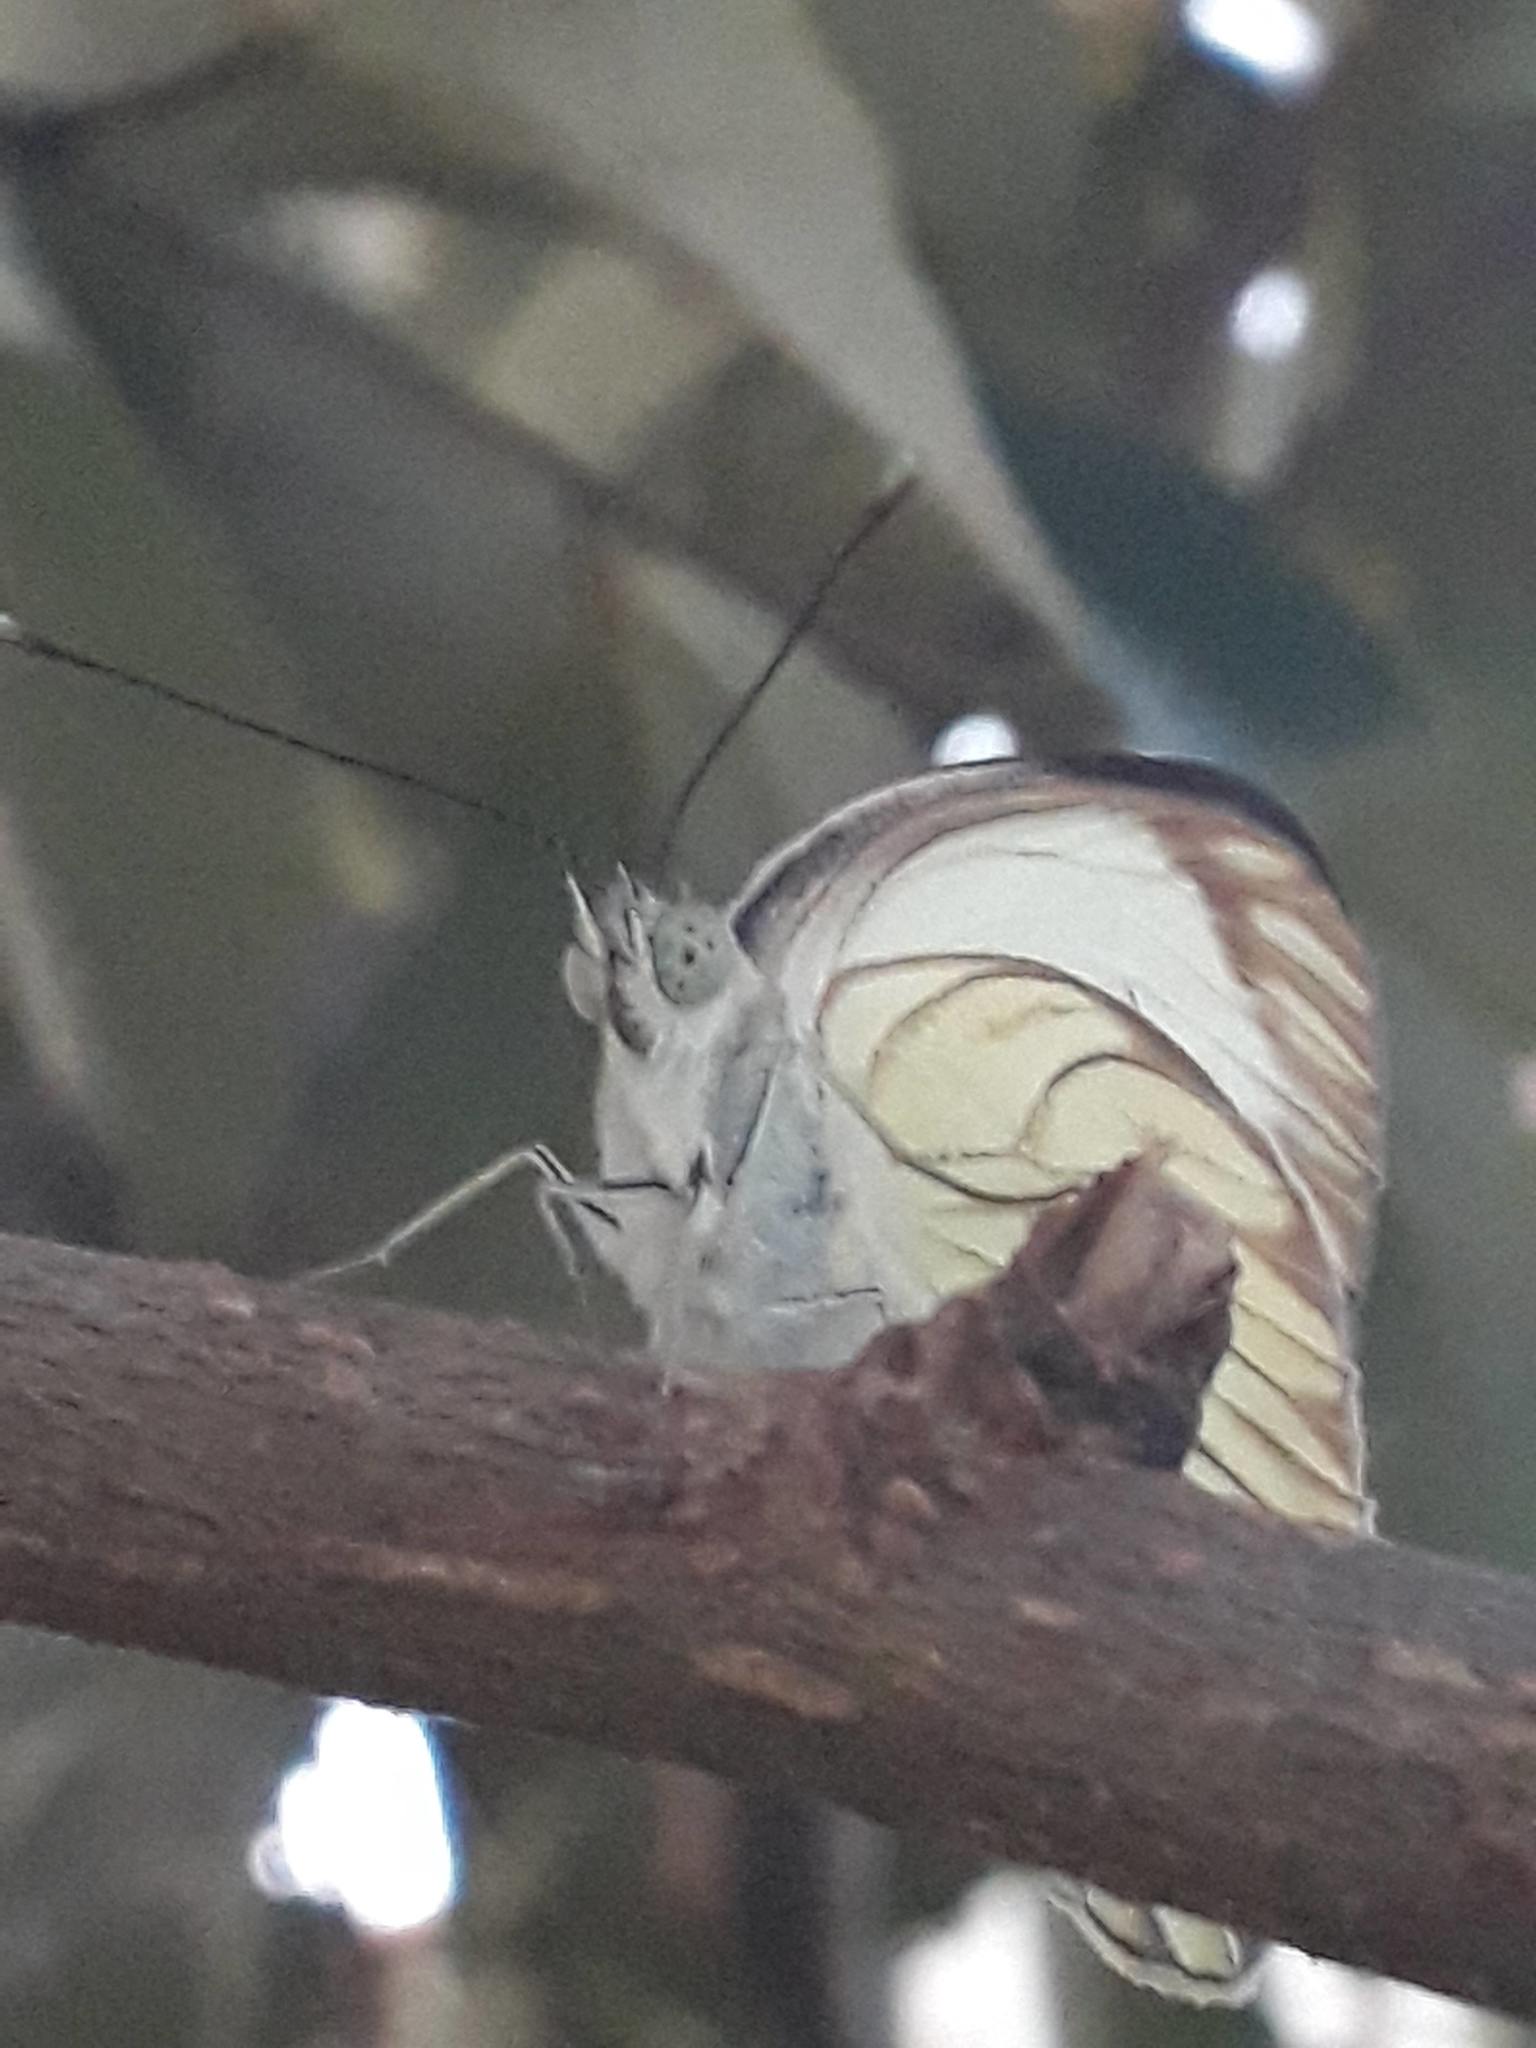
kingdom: Animalia
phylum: Arthropoda
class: Insecta
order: Lepidoptera
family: Pieridae
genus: Ascia
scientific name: Ascia monuste
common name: Great southern white
